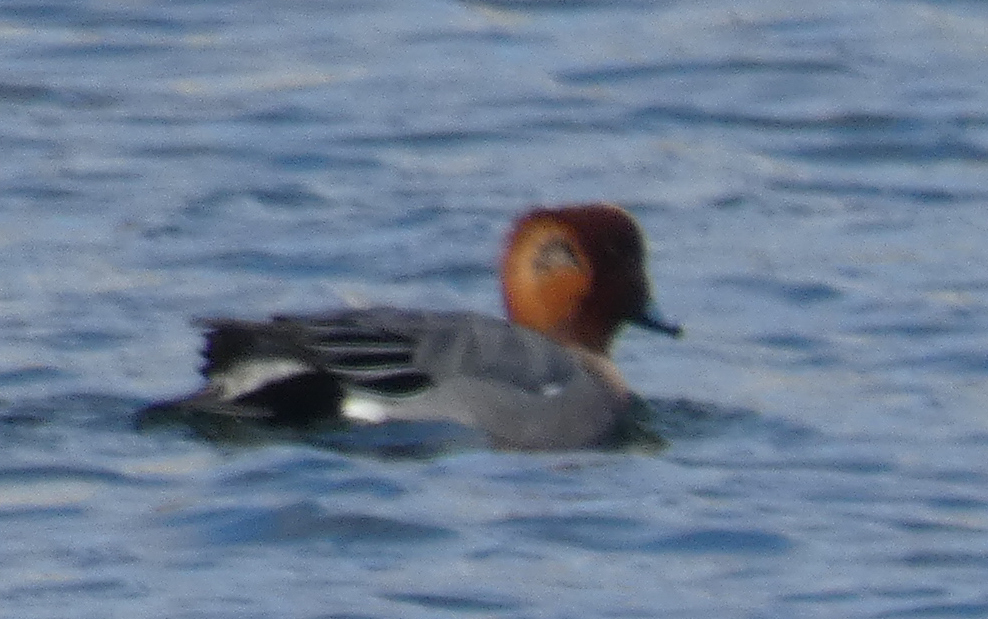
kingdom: Animalia
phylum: Chordata
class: Aves
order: Anseriformes
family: Anatidae
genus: Mareca
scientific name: Mareca penelope
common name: Eurasian wigeon
